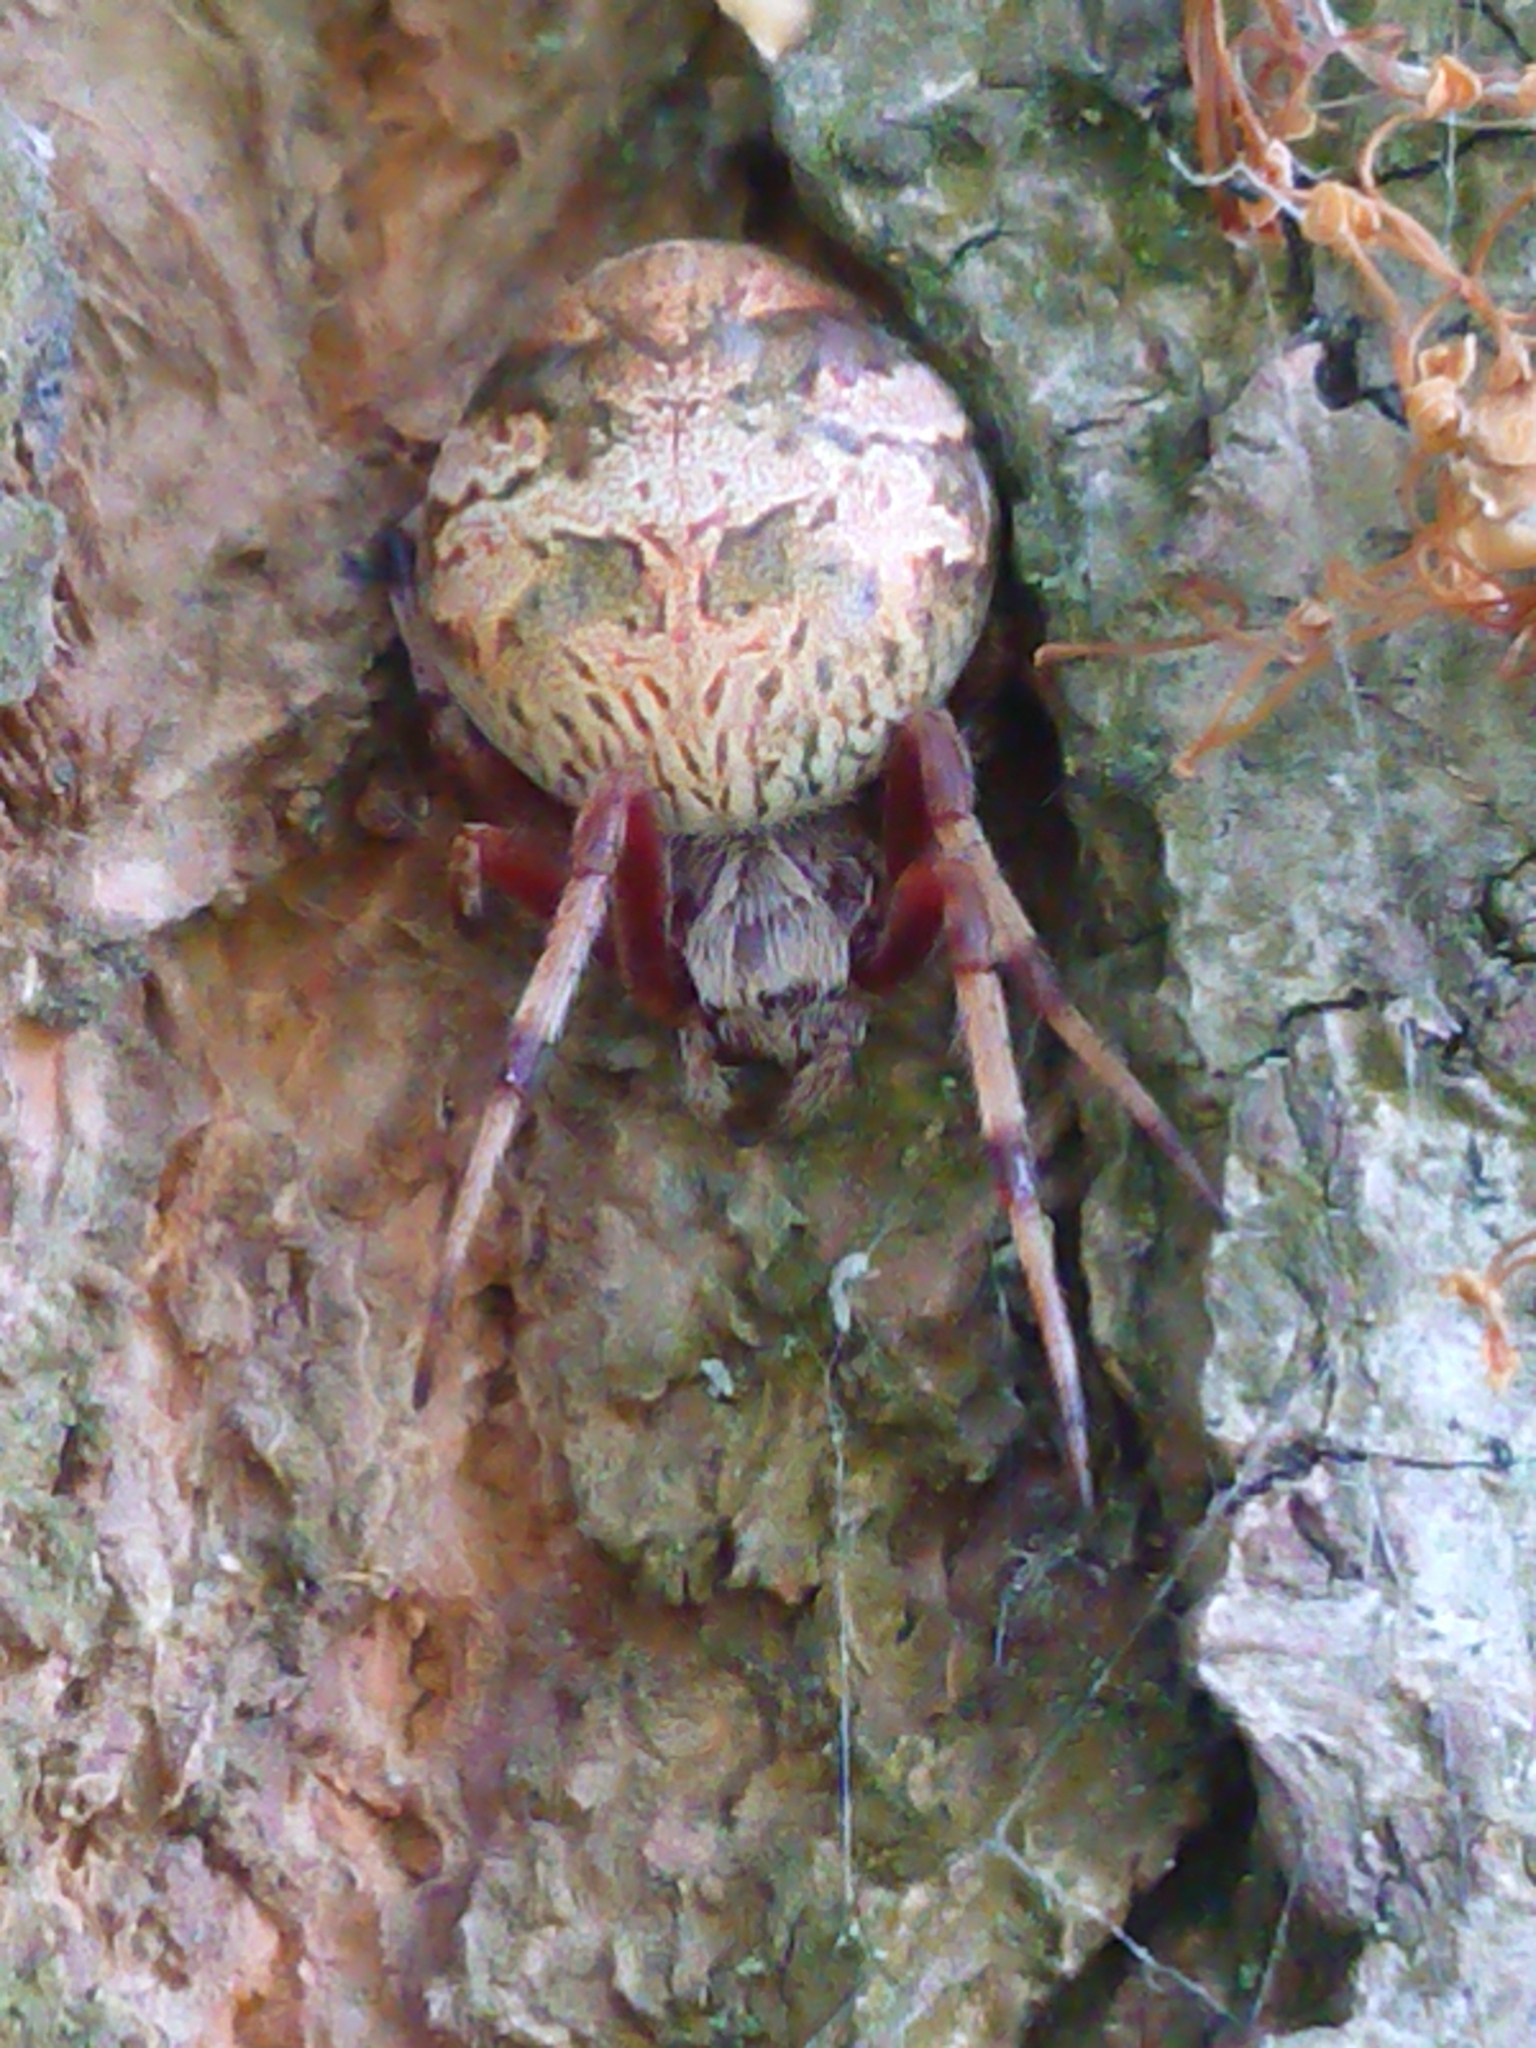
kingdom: Animalia
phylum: Arthropoda
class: Arachnida
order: Araneae
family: Araneidae
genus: Salsa
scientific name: Salsa fuliginata
